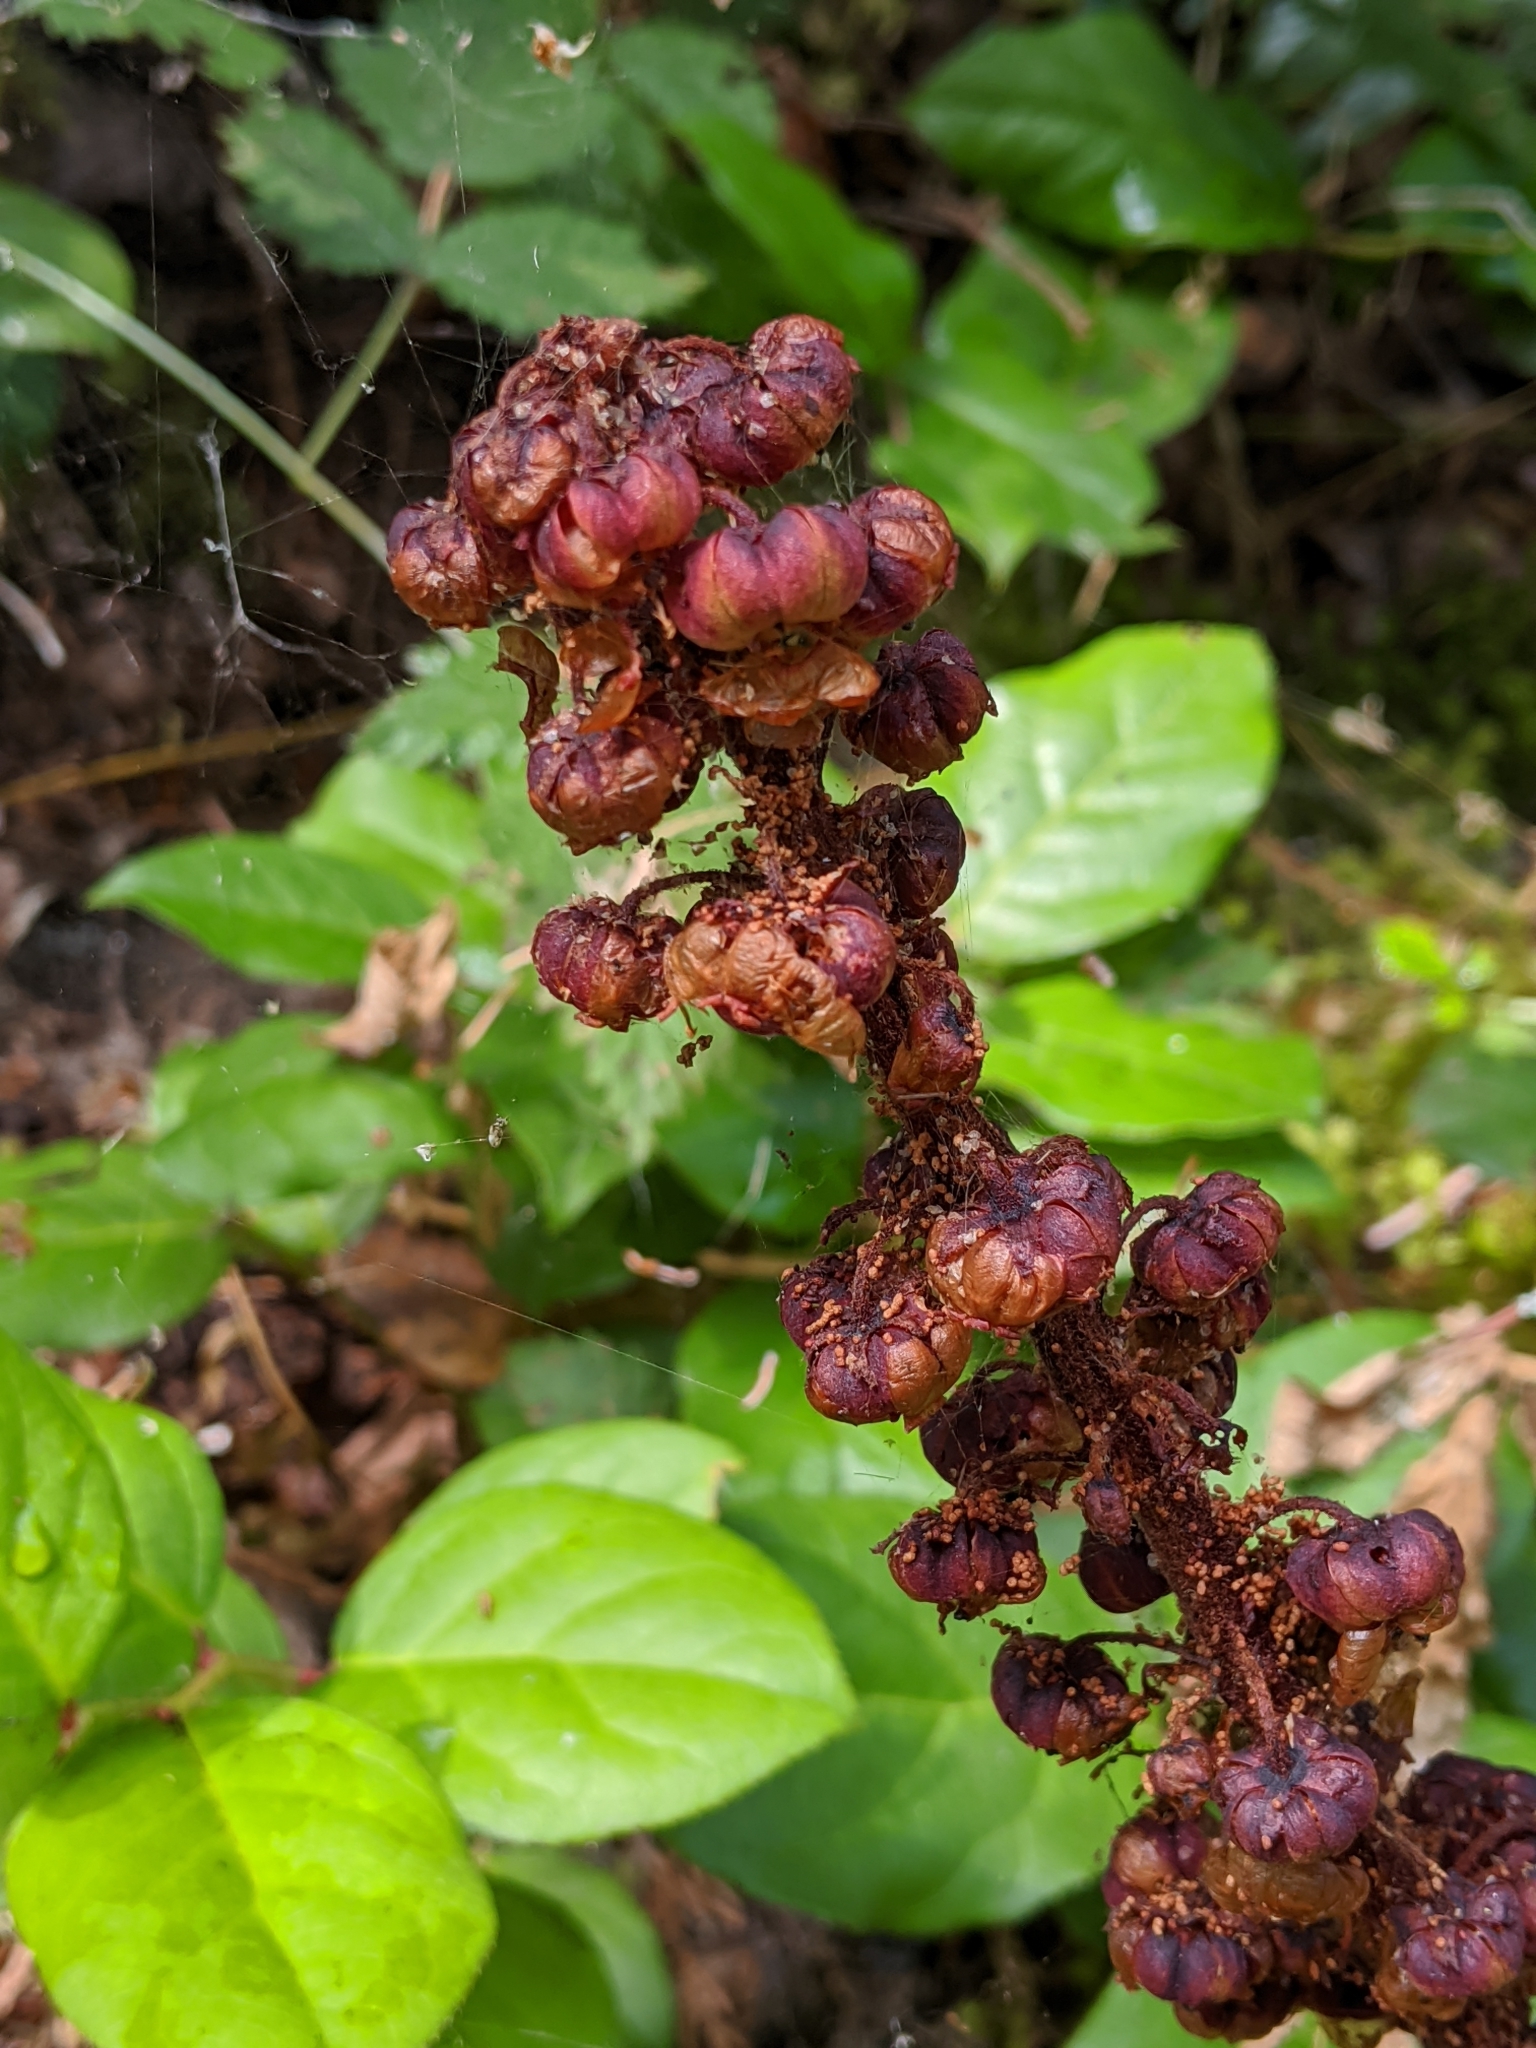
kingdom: Plantae
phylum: Tracheophyta
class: Magnoliopsida
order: Ericales
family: Ericaceae
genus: Pterospora
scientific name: Pterospora andromedea
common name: Giant bird's-nest
